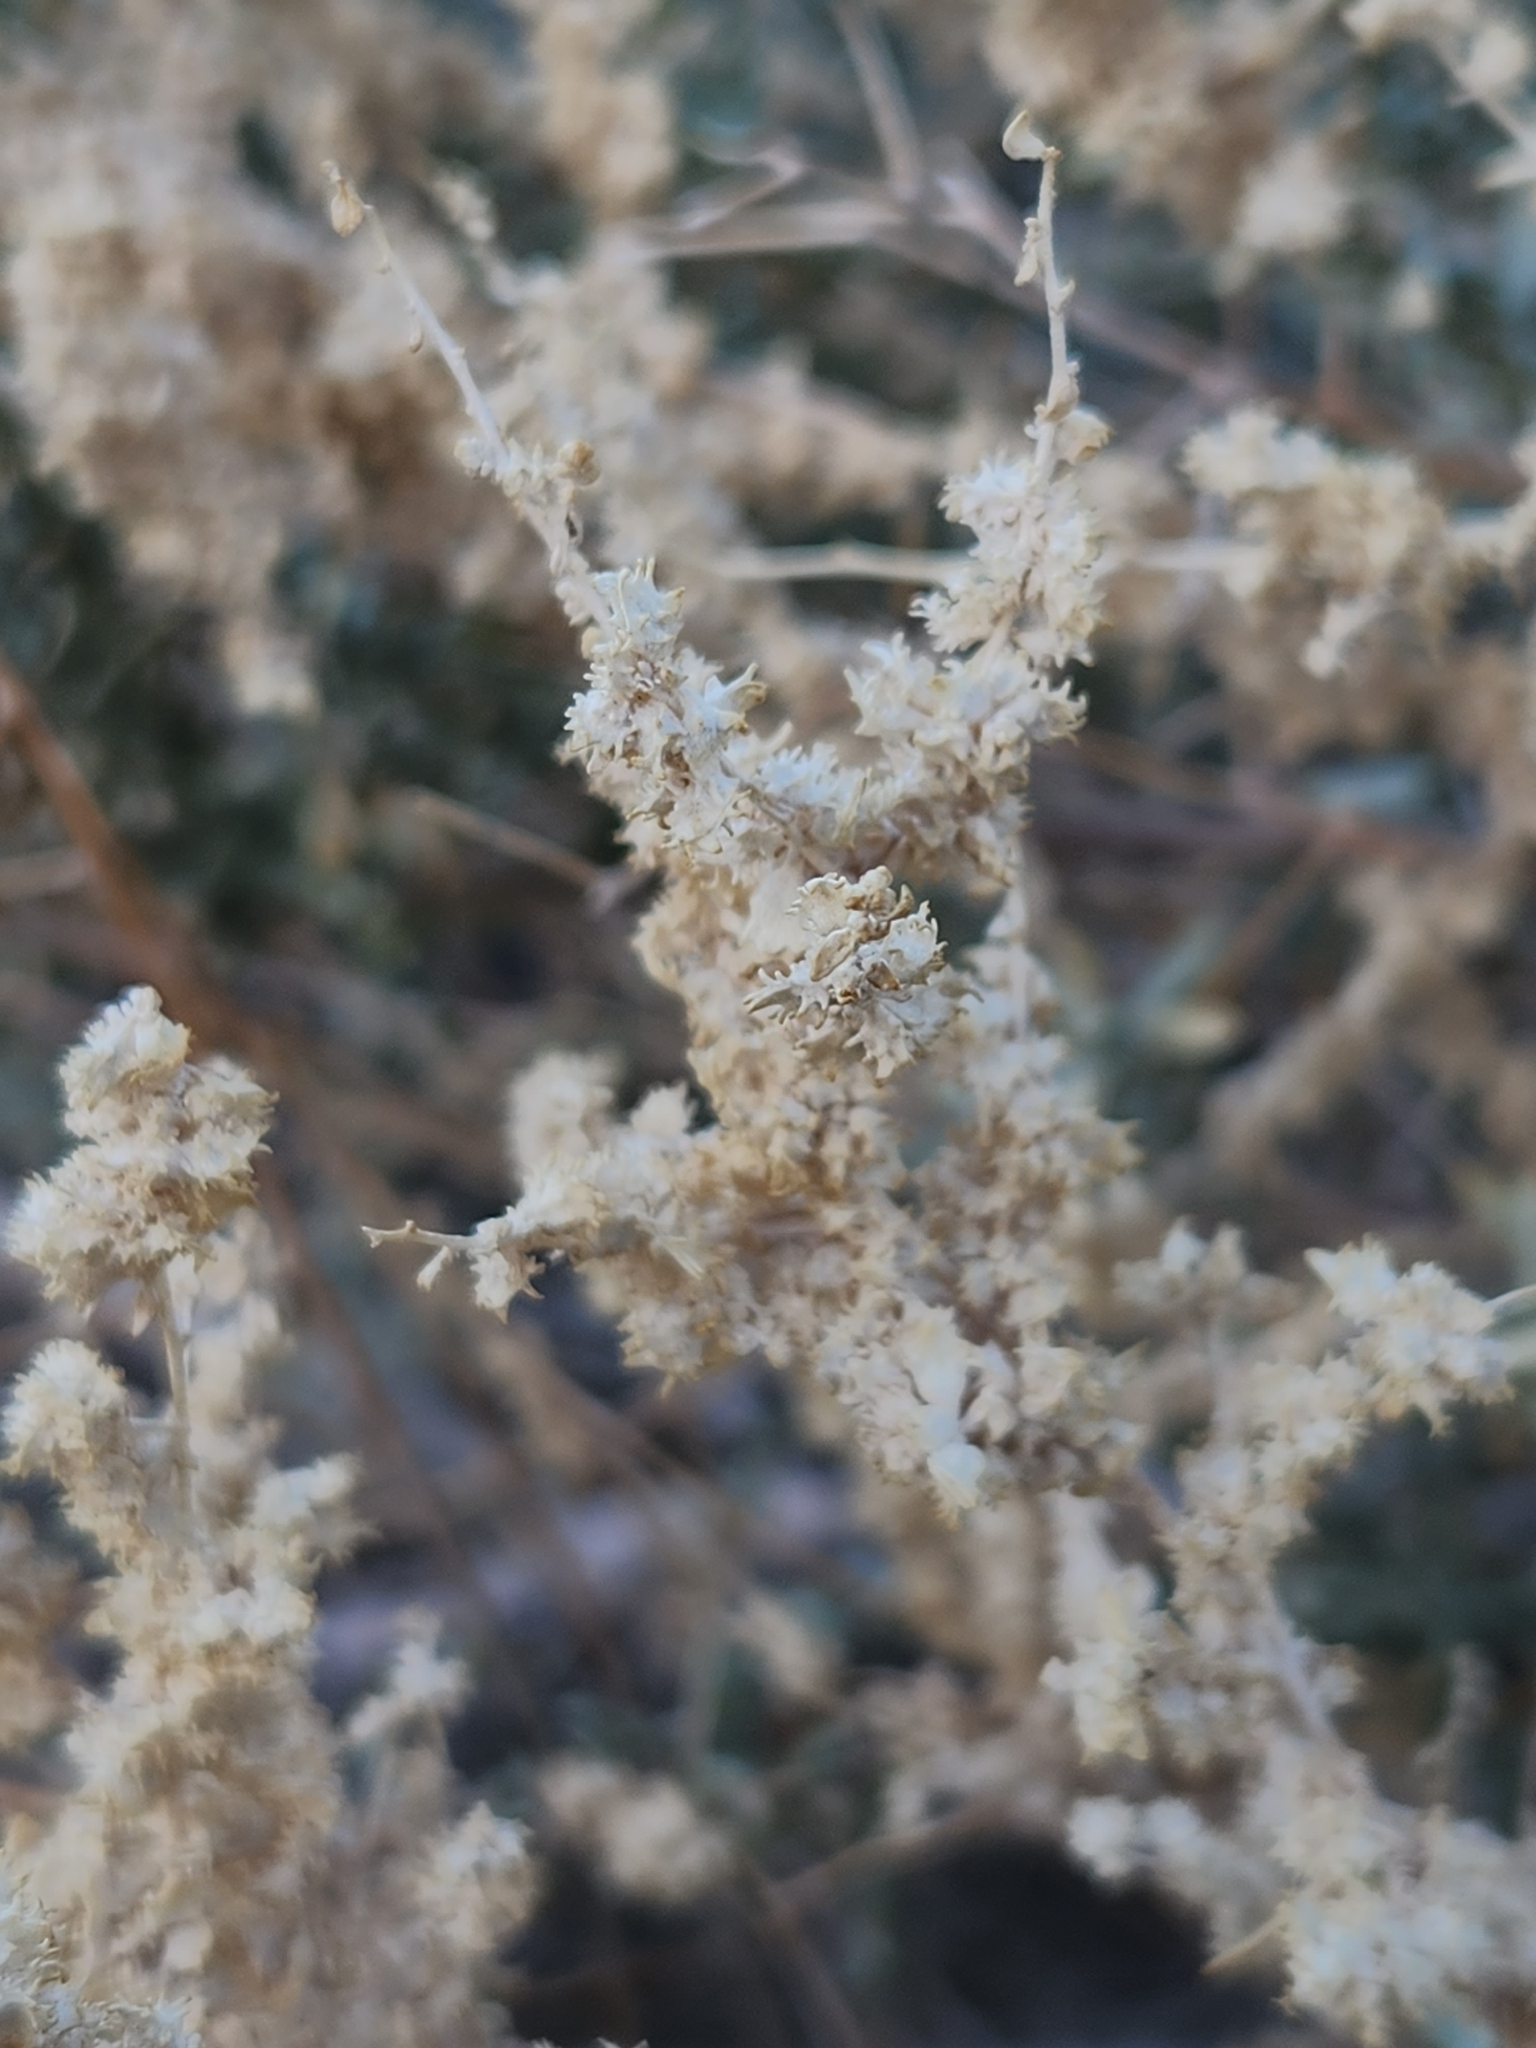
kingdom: Plantae
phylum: Tracheophyta
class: Magnoliopsida
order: Caryophyllales
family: Amaranthaceae
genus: Atriplex
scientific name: Atriplex polycarpa
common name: Desert saltbush
